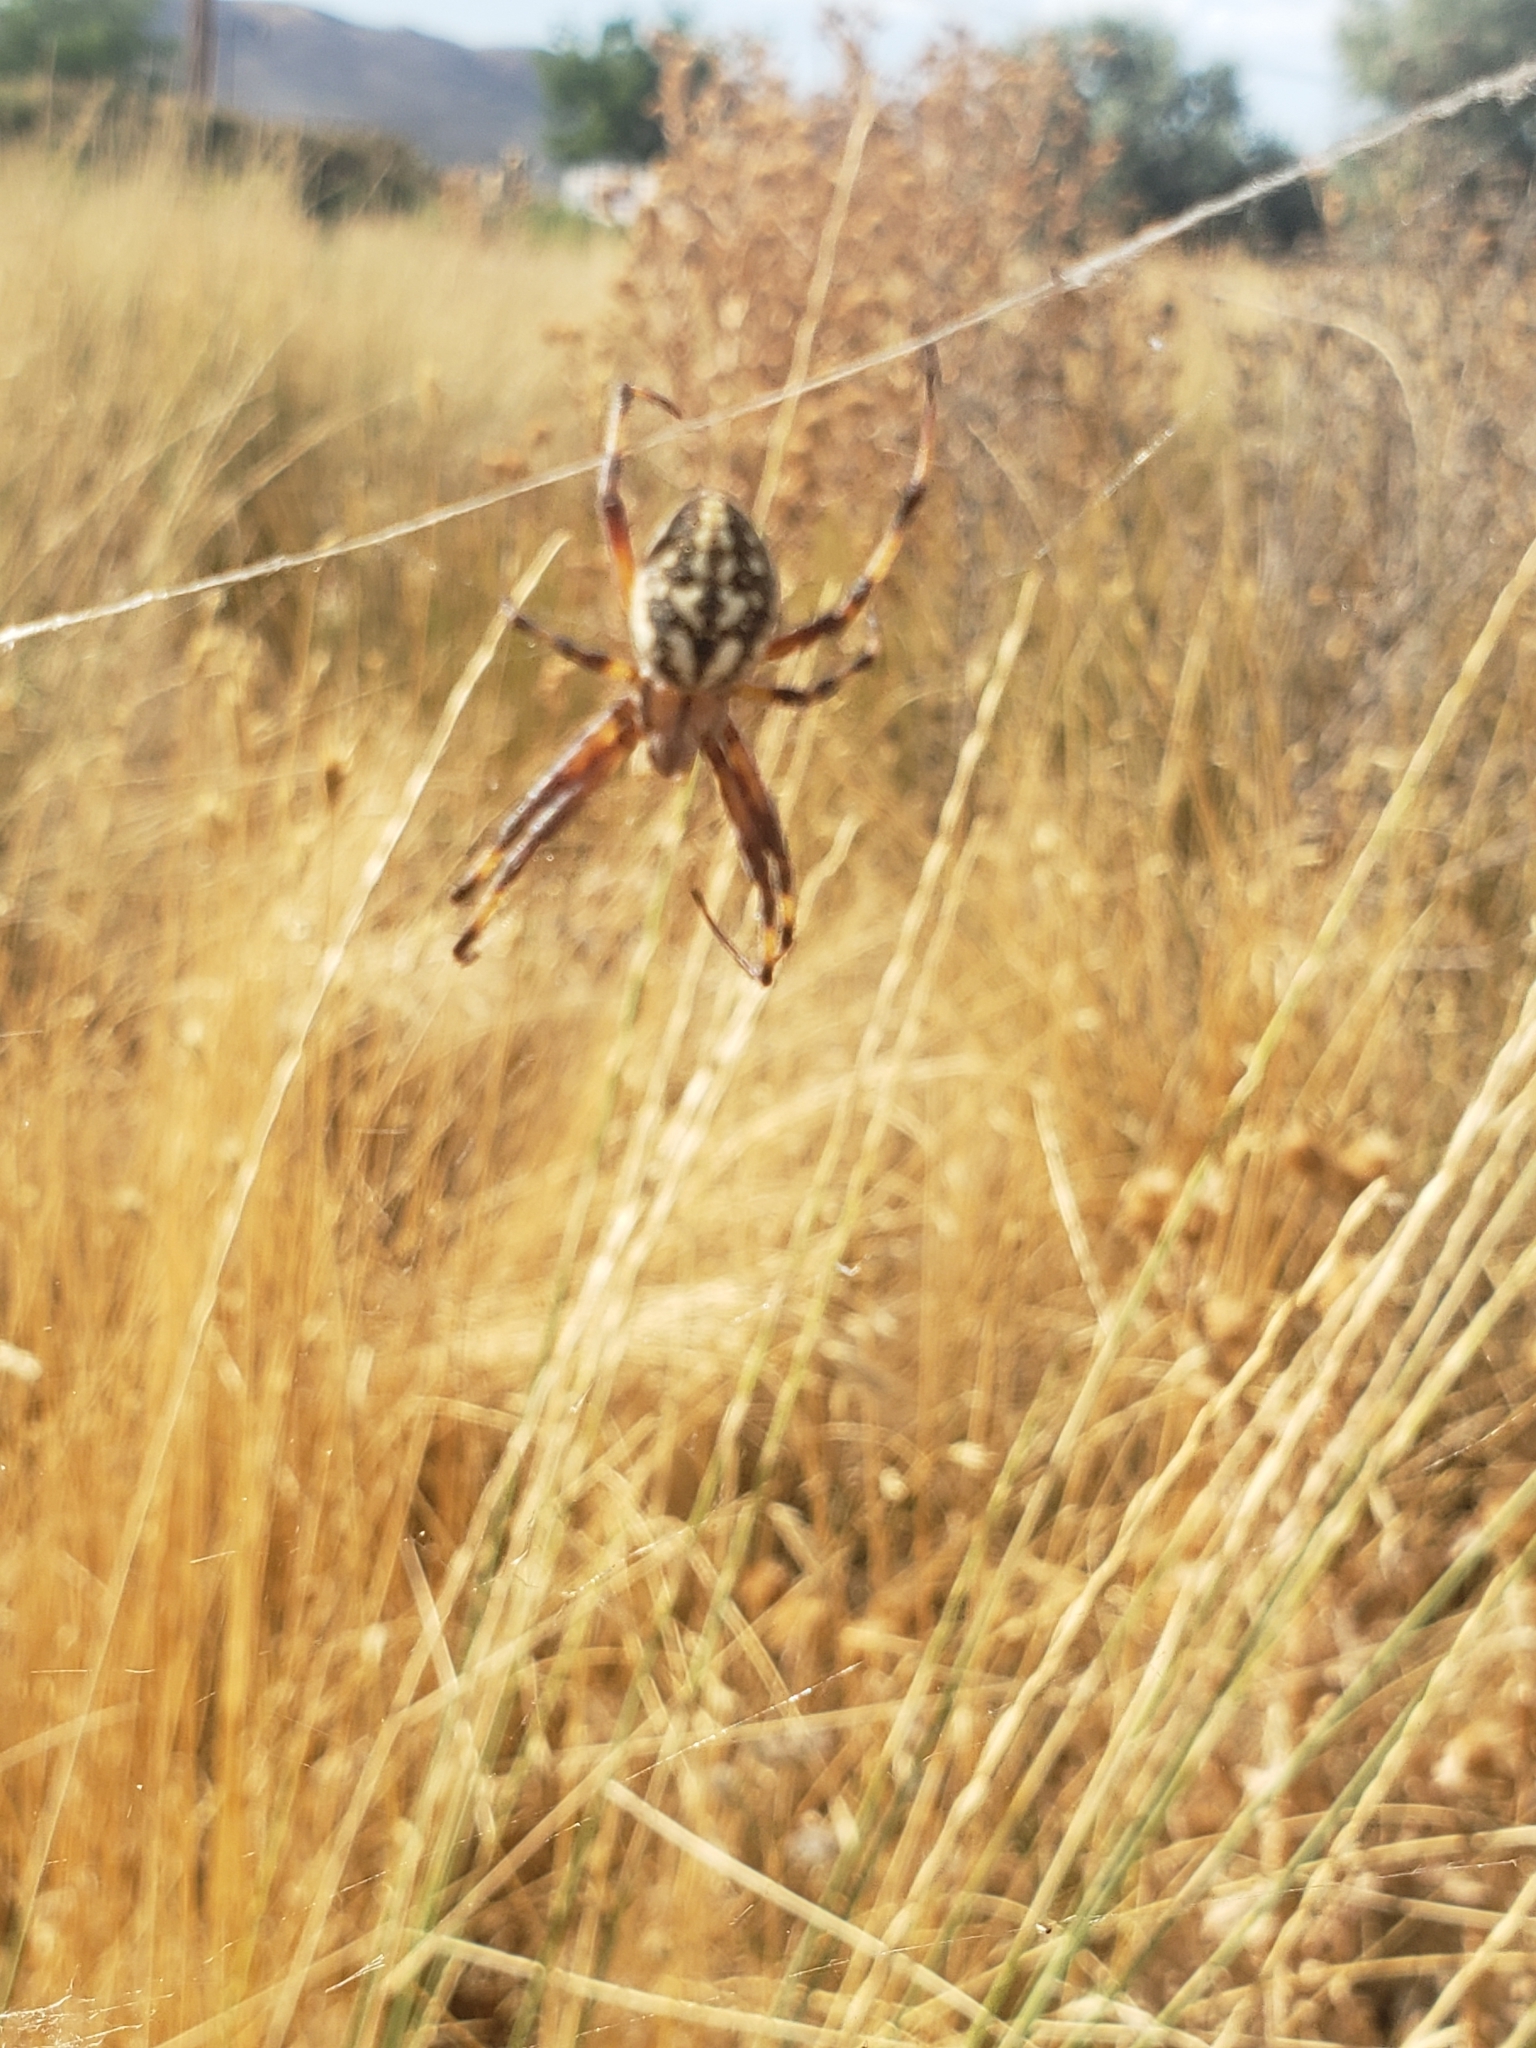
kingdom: Animalia
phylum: Arthropoda
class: Arachnida
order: Araneae
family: Araneidae
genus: Neoscona
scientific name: Neoscona oaxacensis
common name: Orb weavers
